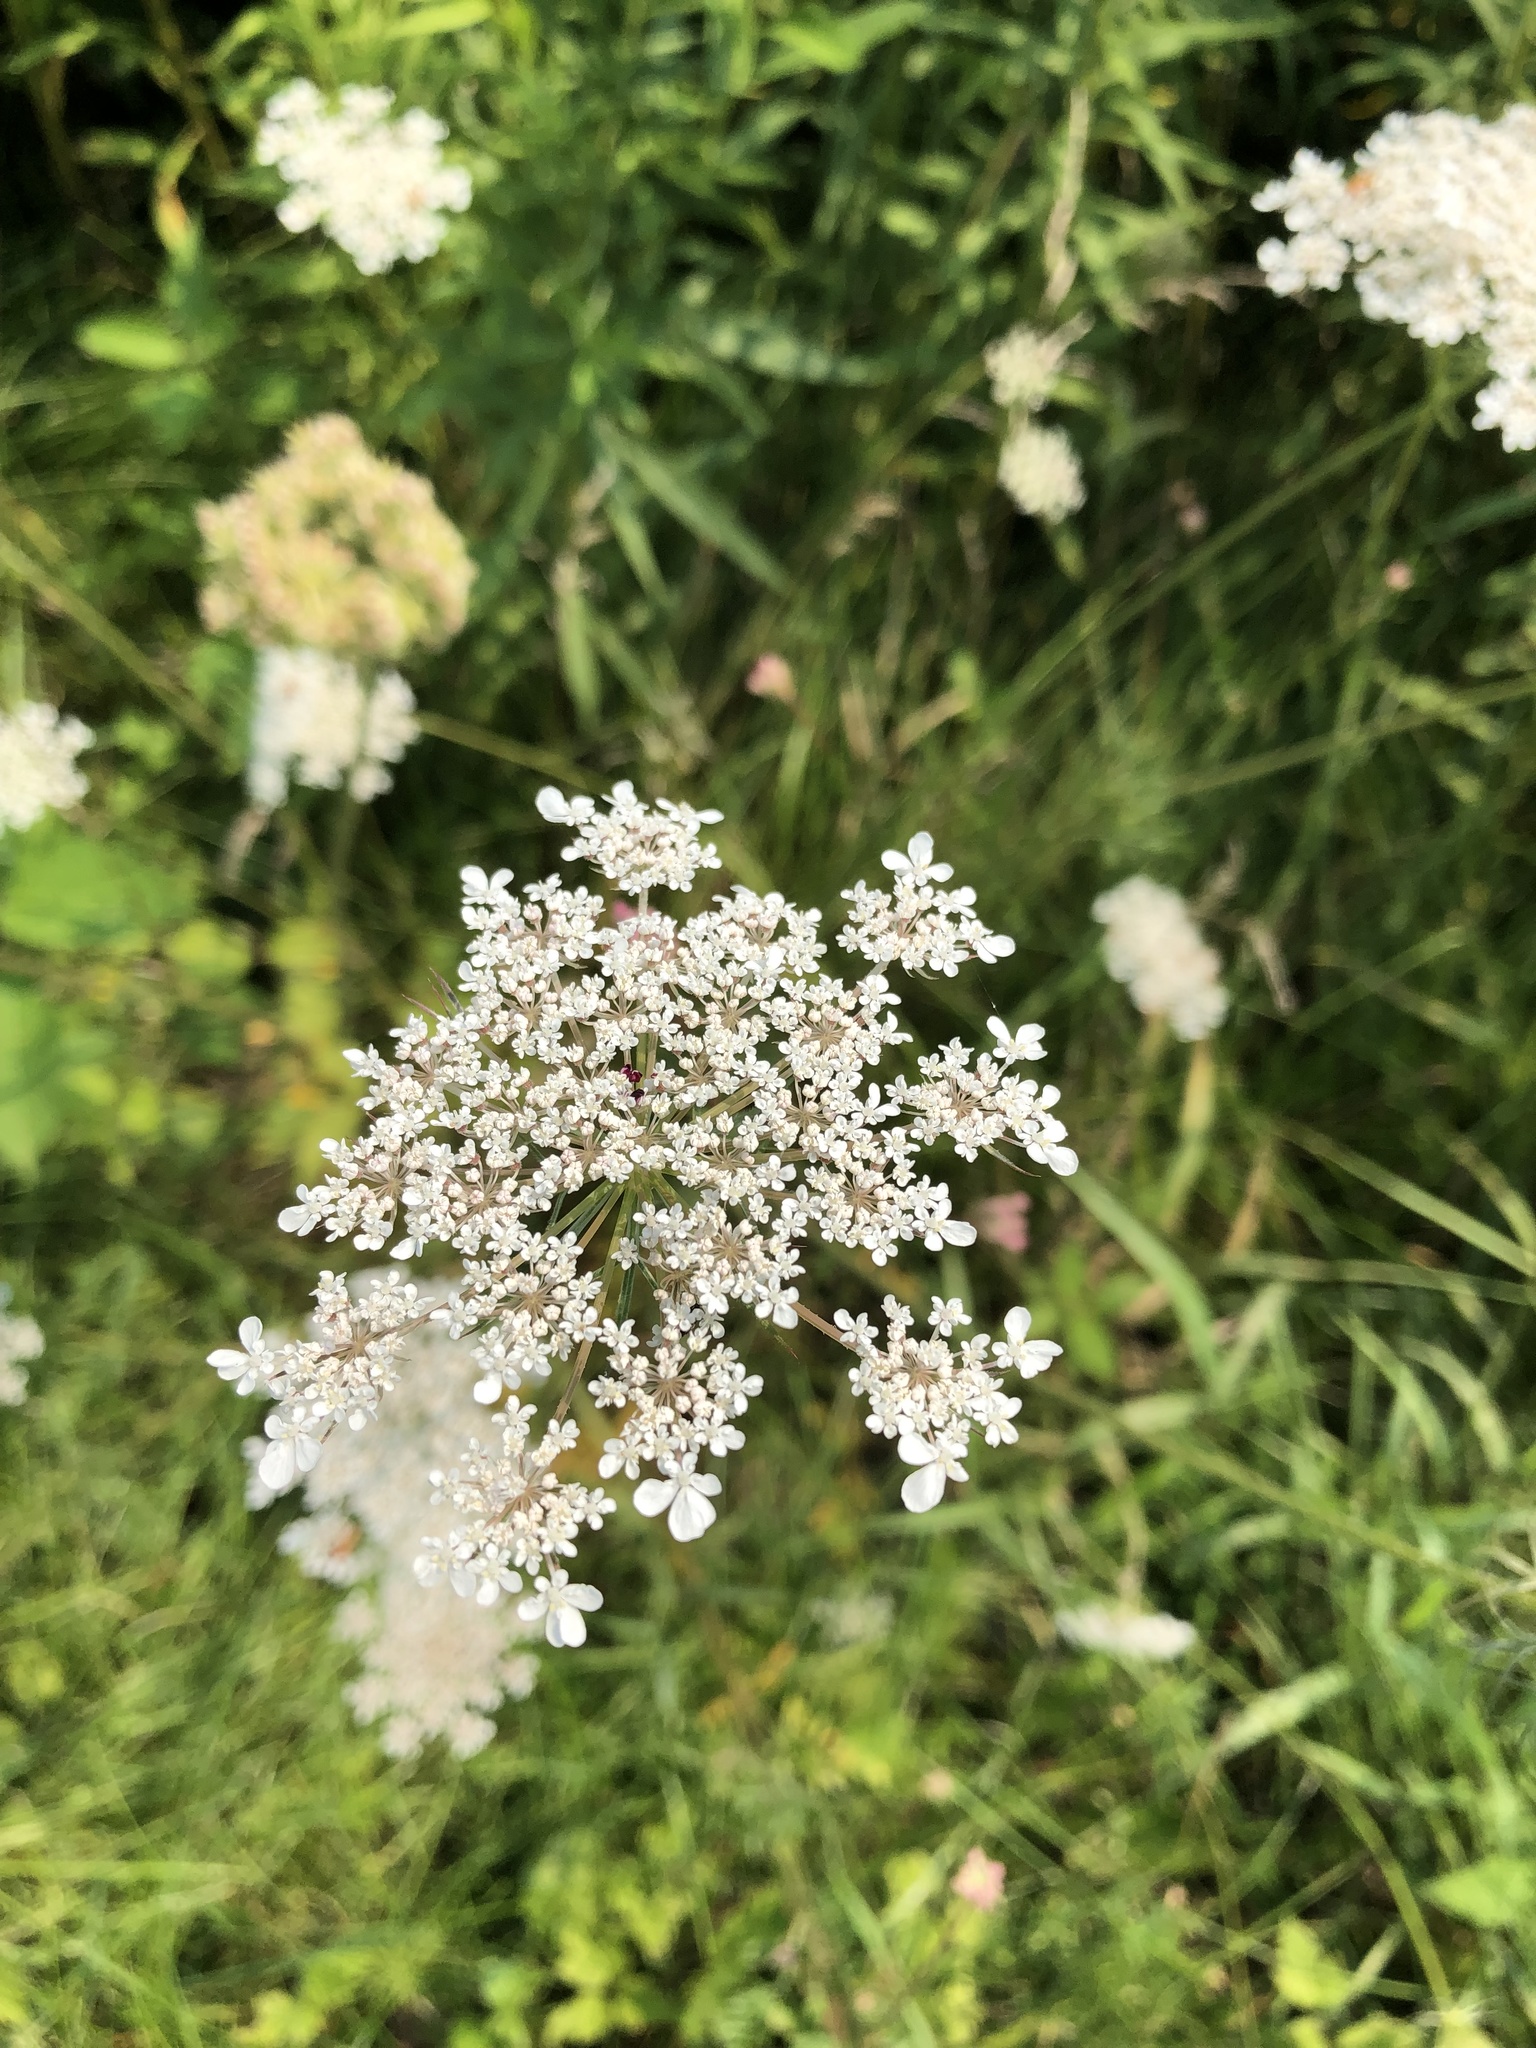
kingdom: Plantae
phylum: Tracheophyta
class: Magnoliopsida
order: Apiales
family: Apiaceae
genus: Daucus
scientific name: Daucus carota
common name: Wild carrot
